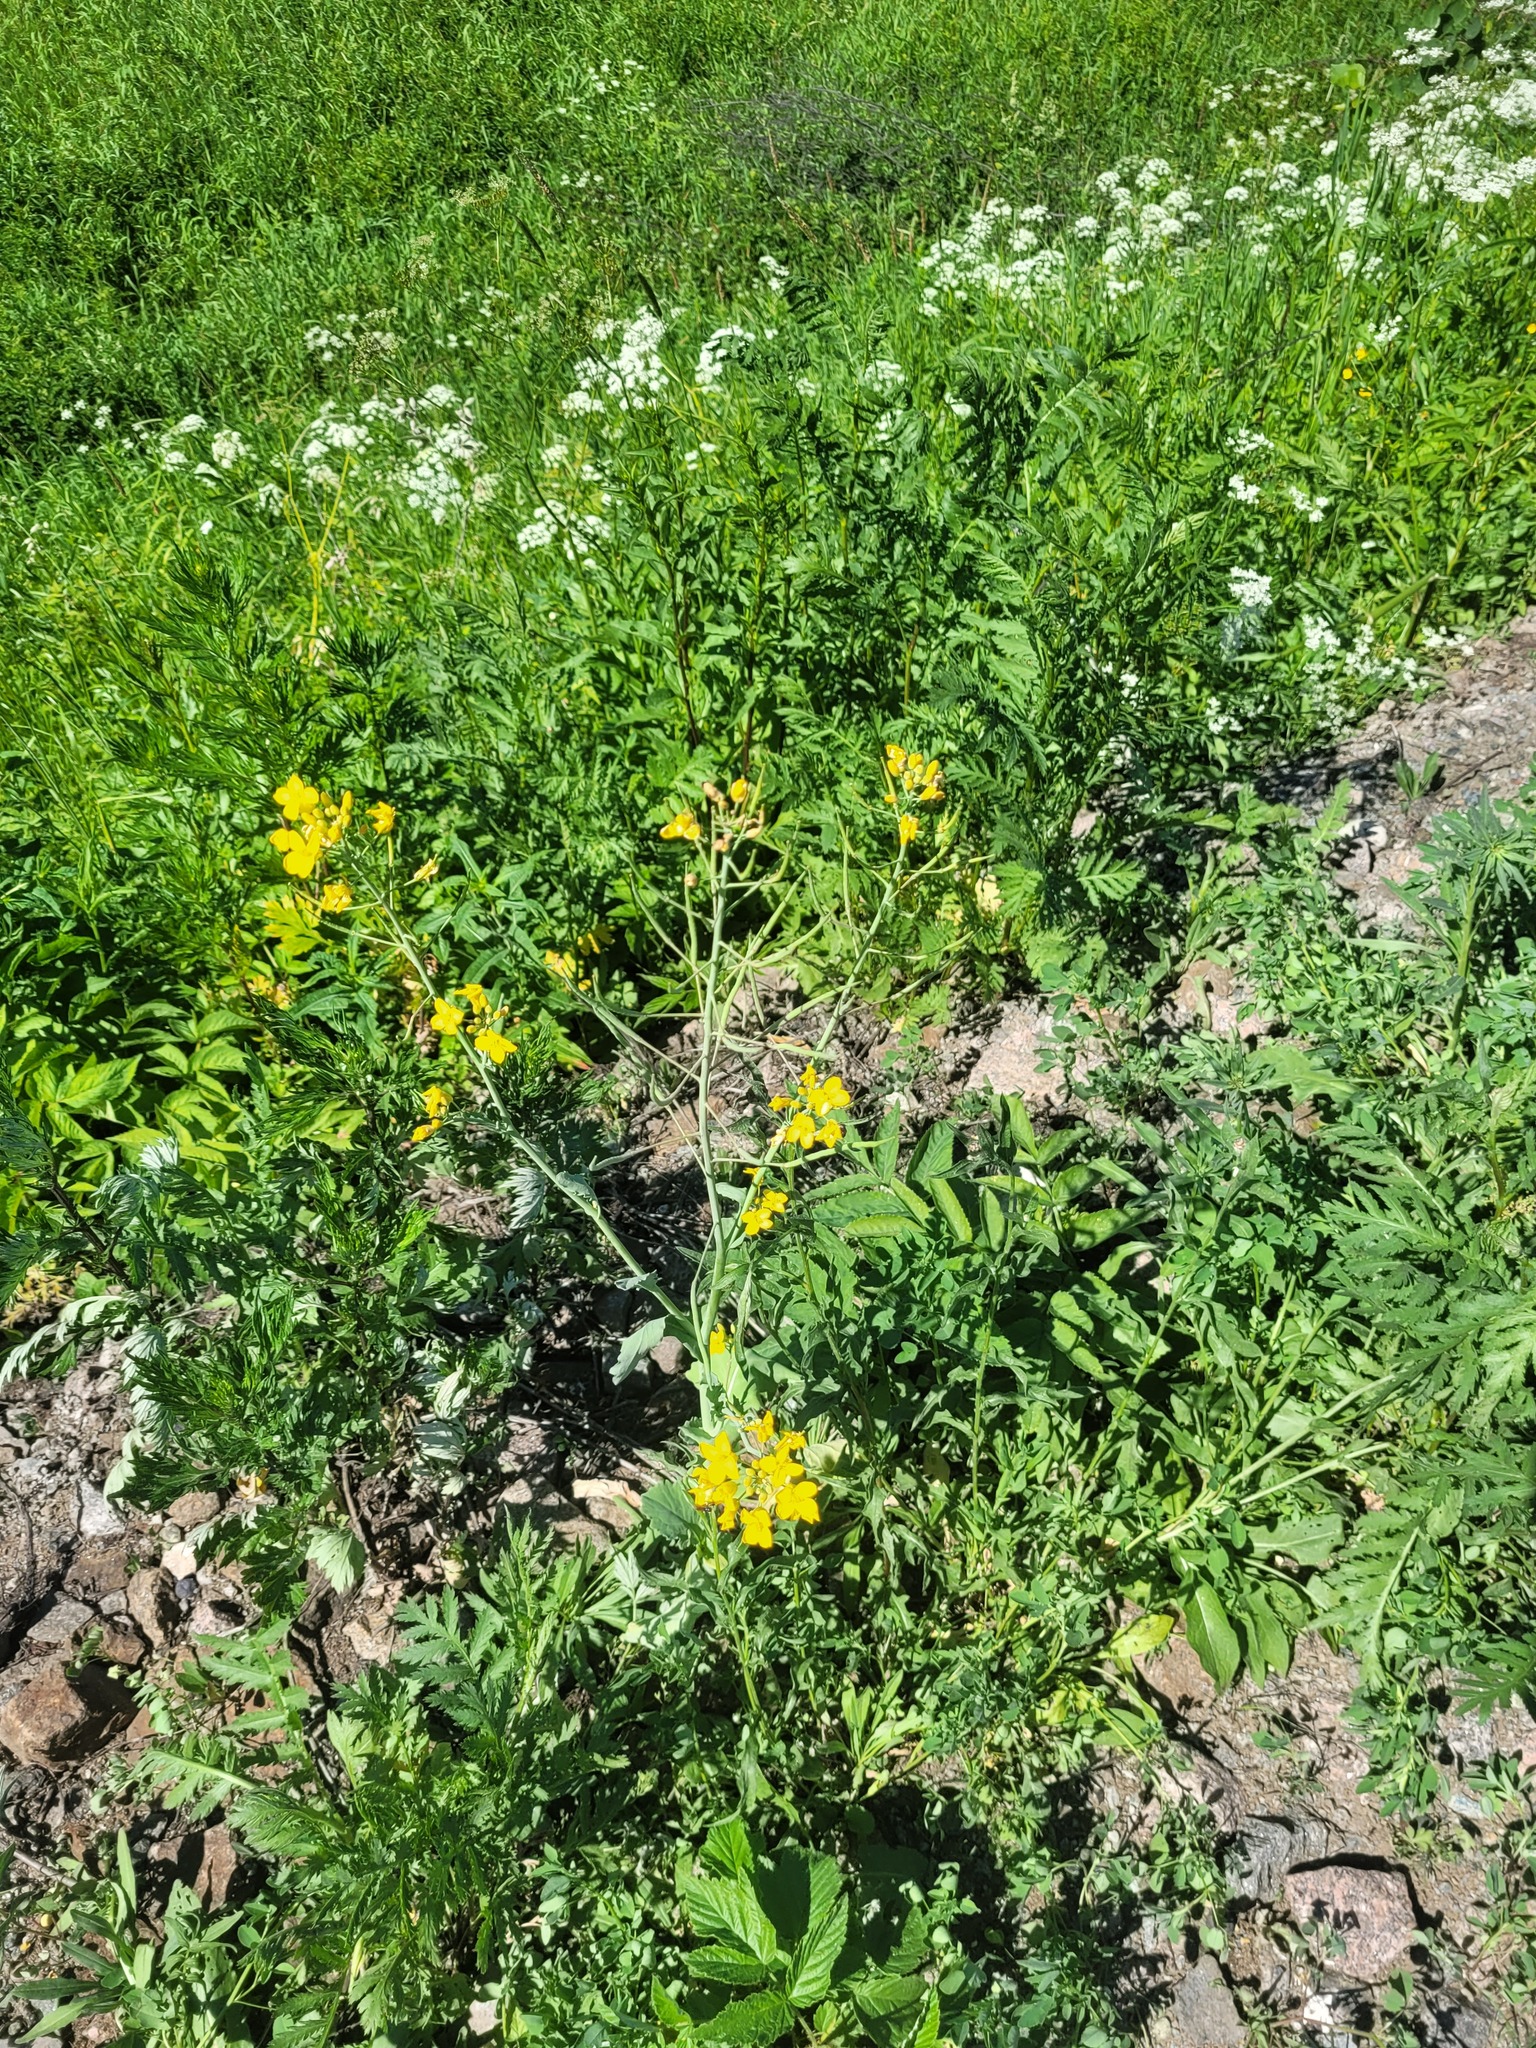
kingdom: Plantae
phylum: Tracheophyta
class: Magnoliopsida
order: Brassicales
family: Brassicaceae
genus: Brassica
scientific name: Brassica napus
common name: Rape
